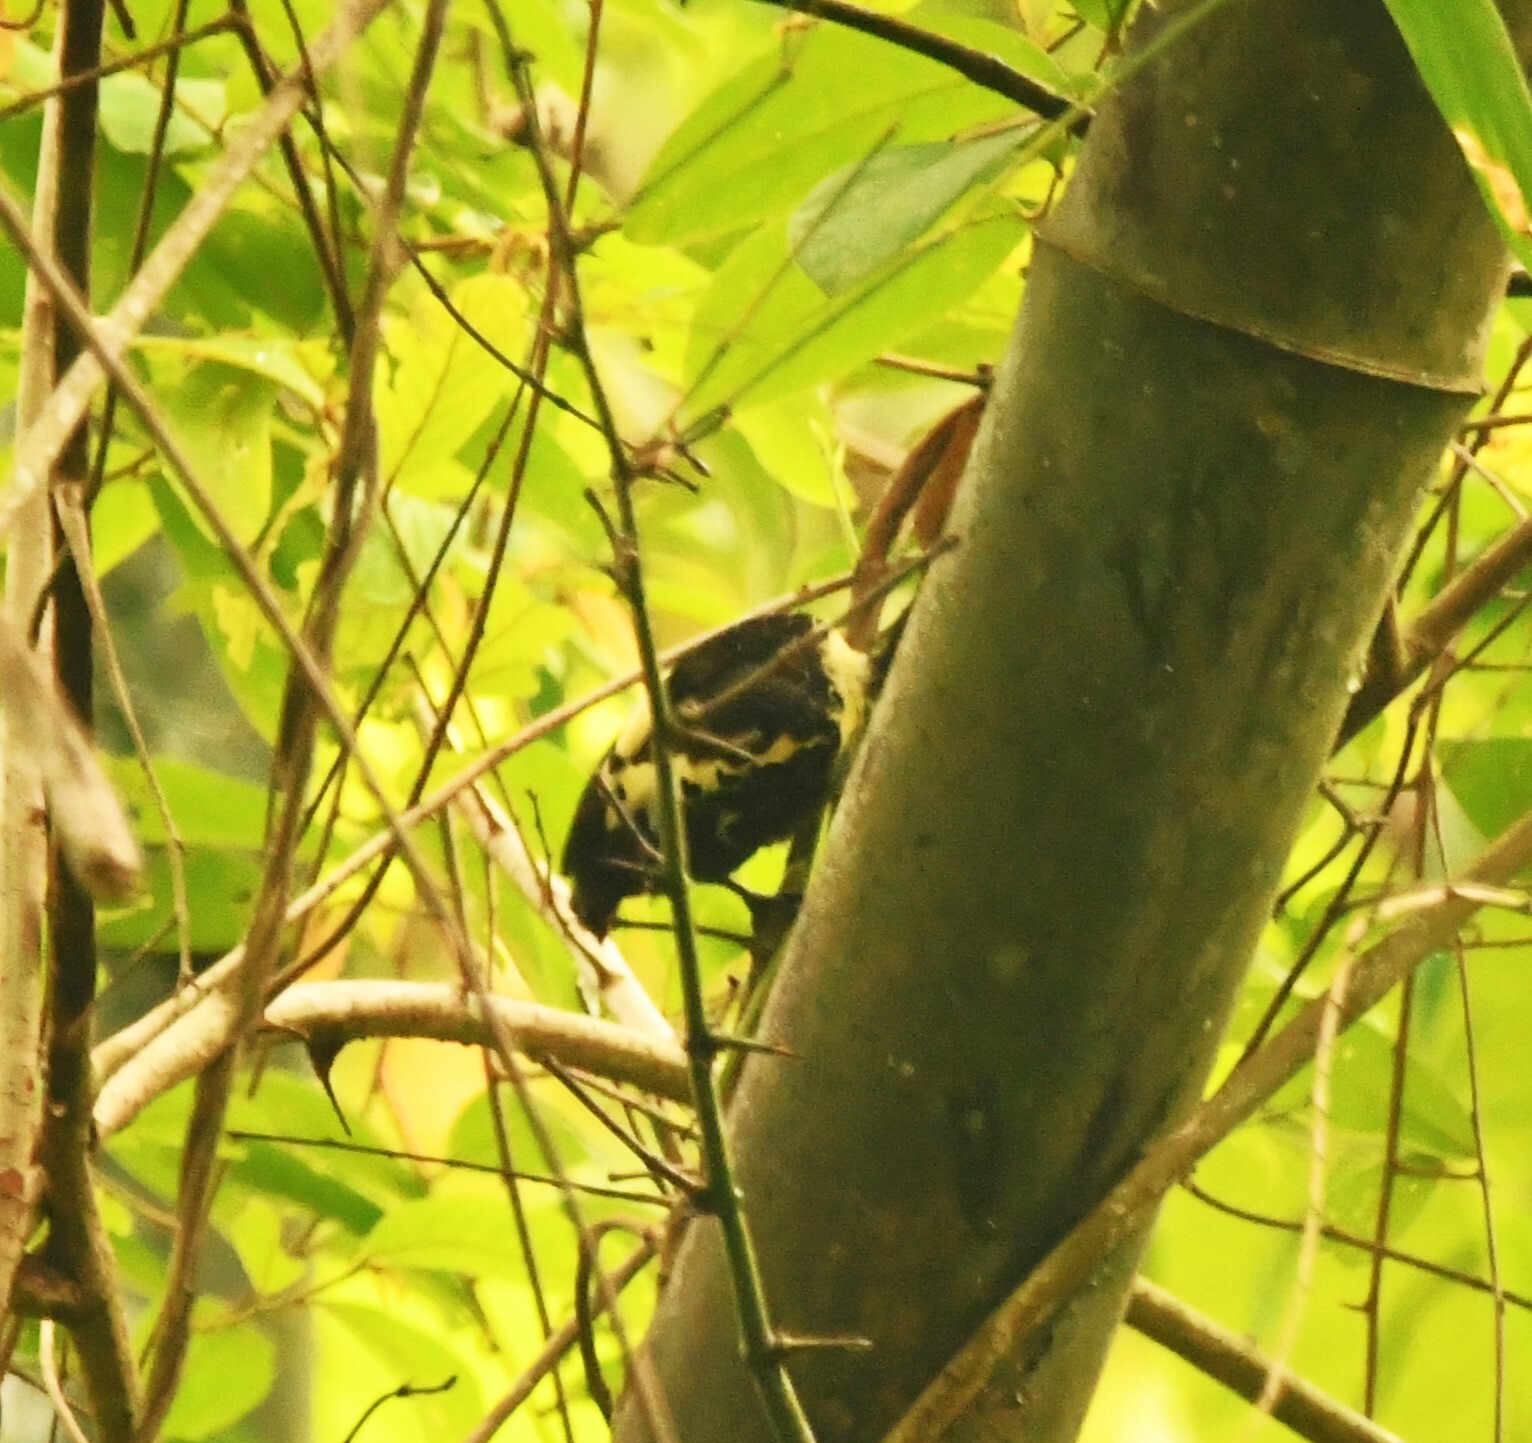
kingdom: Animalia
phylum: Chordata
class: Aves
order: Piciformes
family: Picidae
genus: Hemicircus
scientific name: Hemicircus canente
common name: Heart-spotted woodpecker
